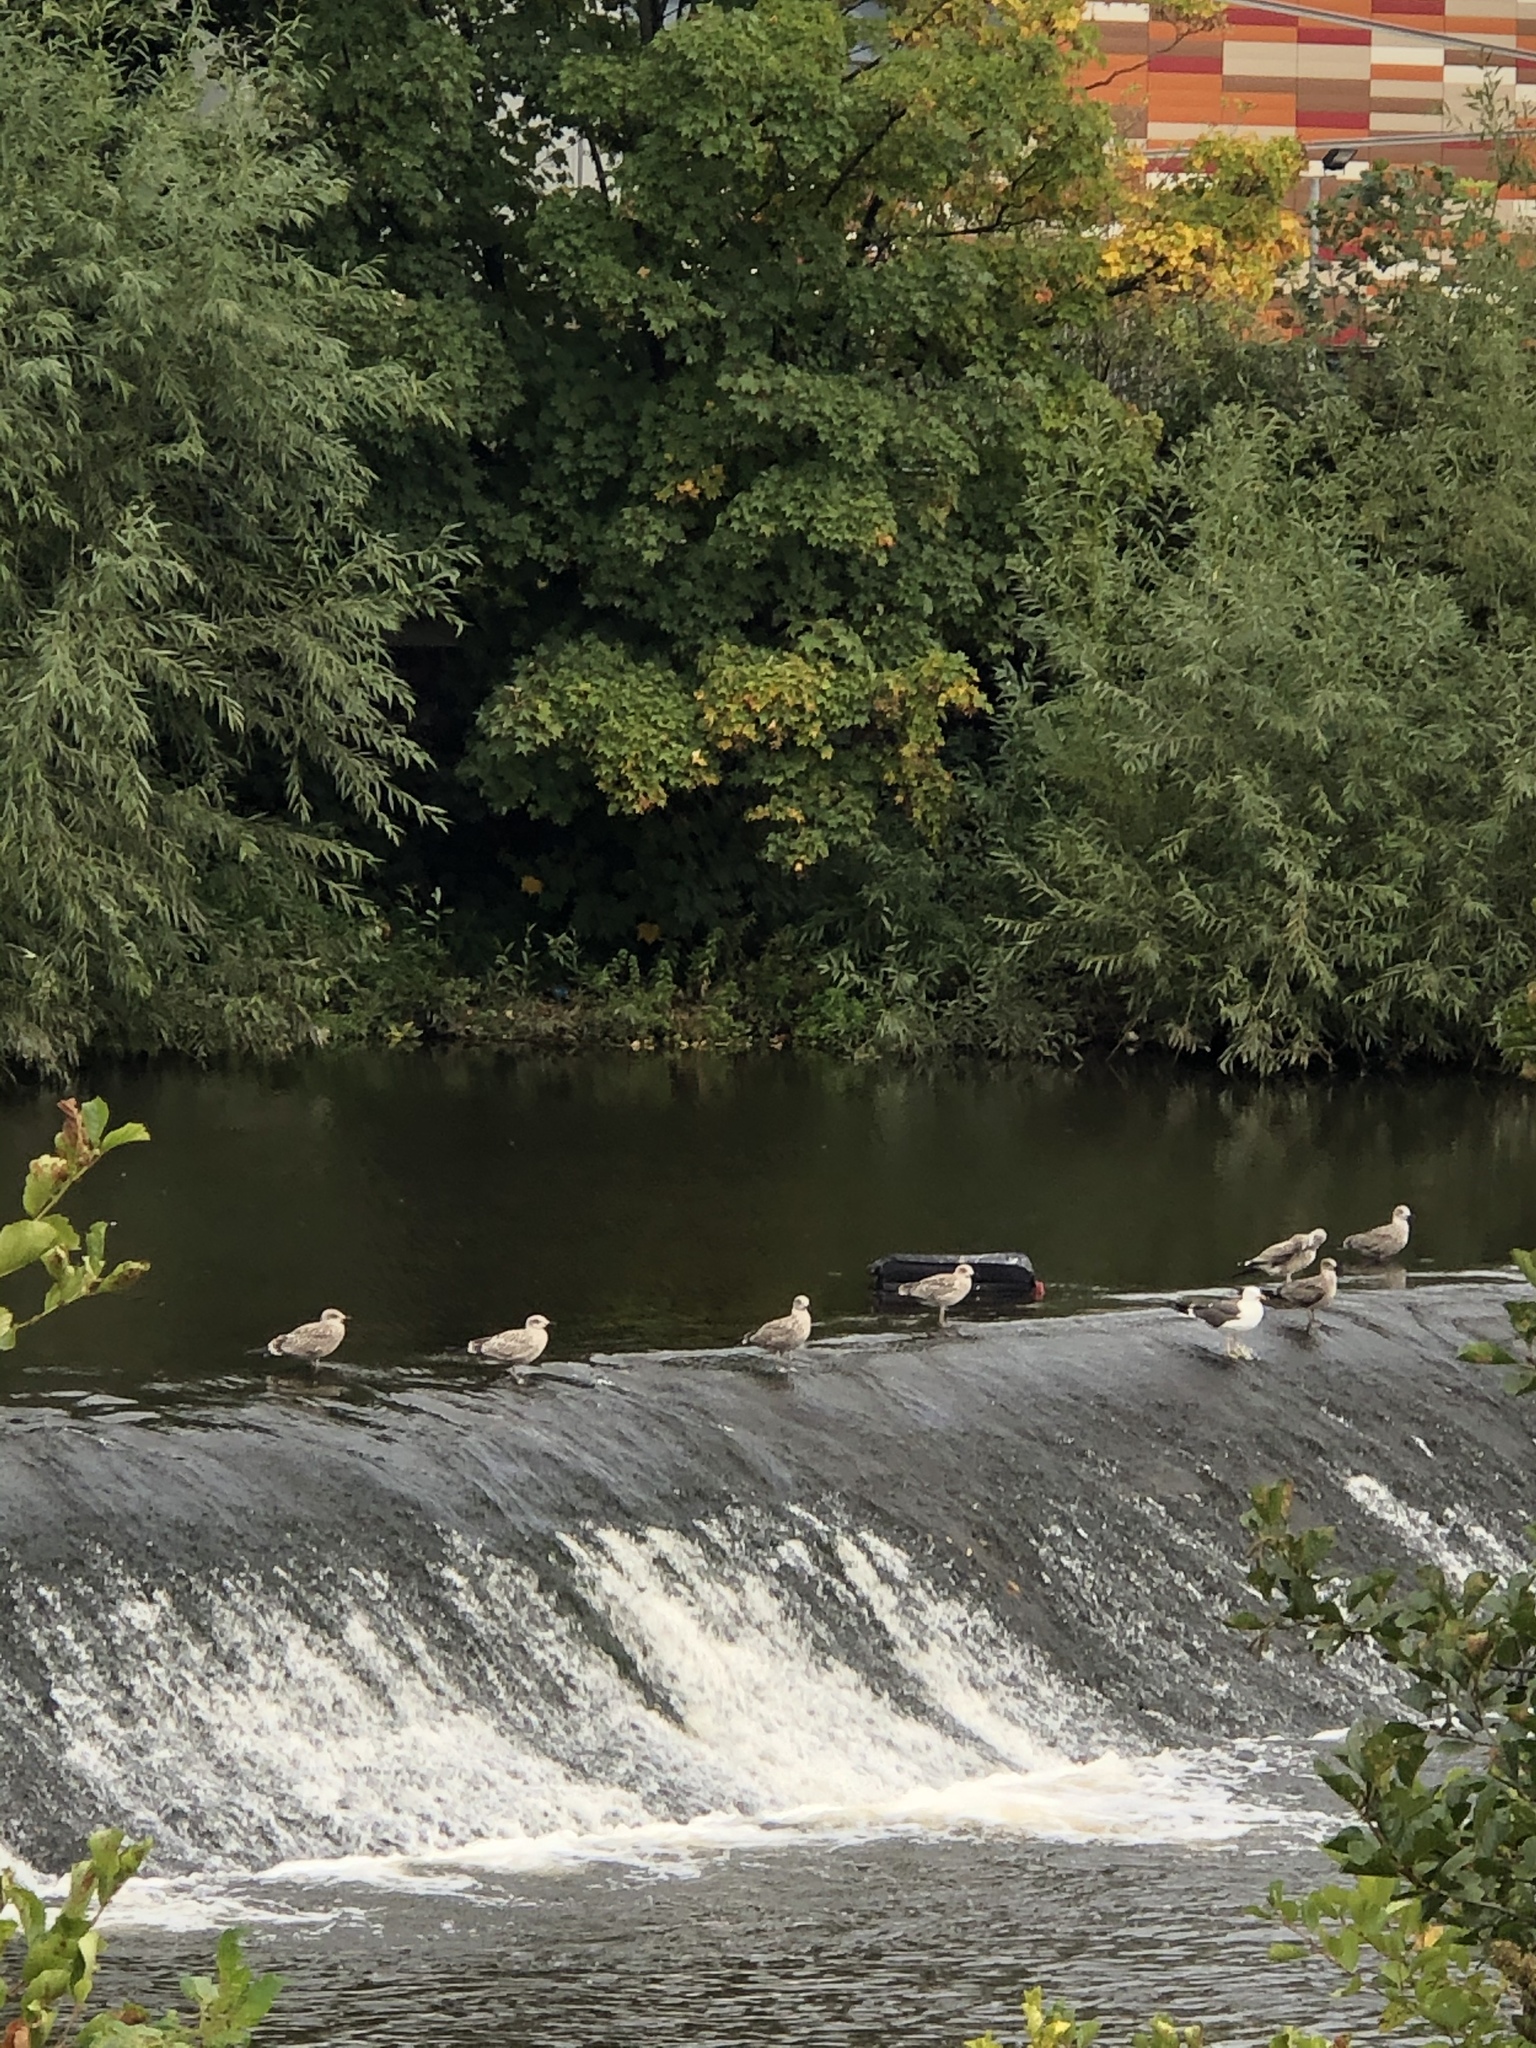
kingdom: Animalia
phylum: Chordata
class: Aves
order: Charadriiformes
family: Laridae
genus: Larus
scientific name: Larus argentatus
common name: Herring gull
